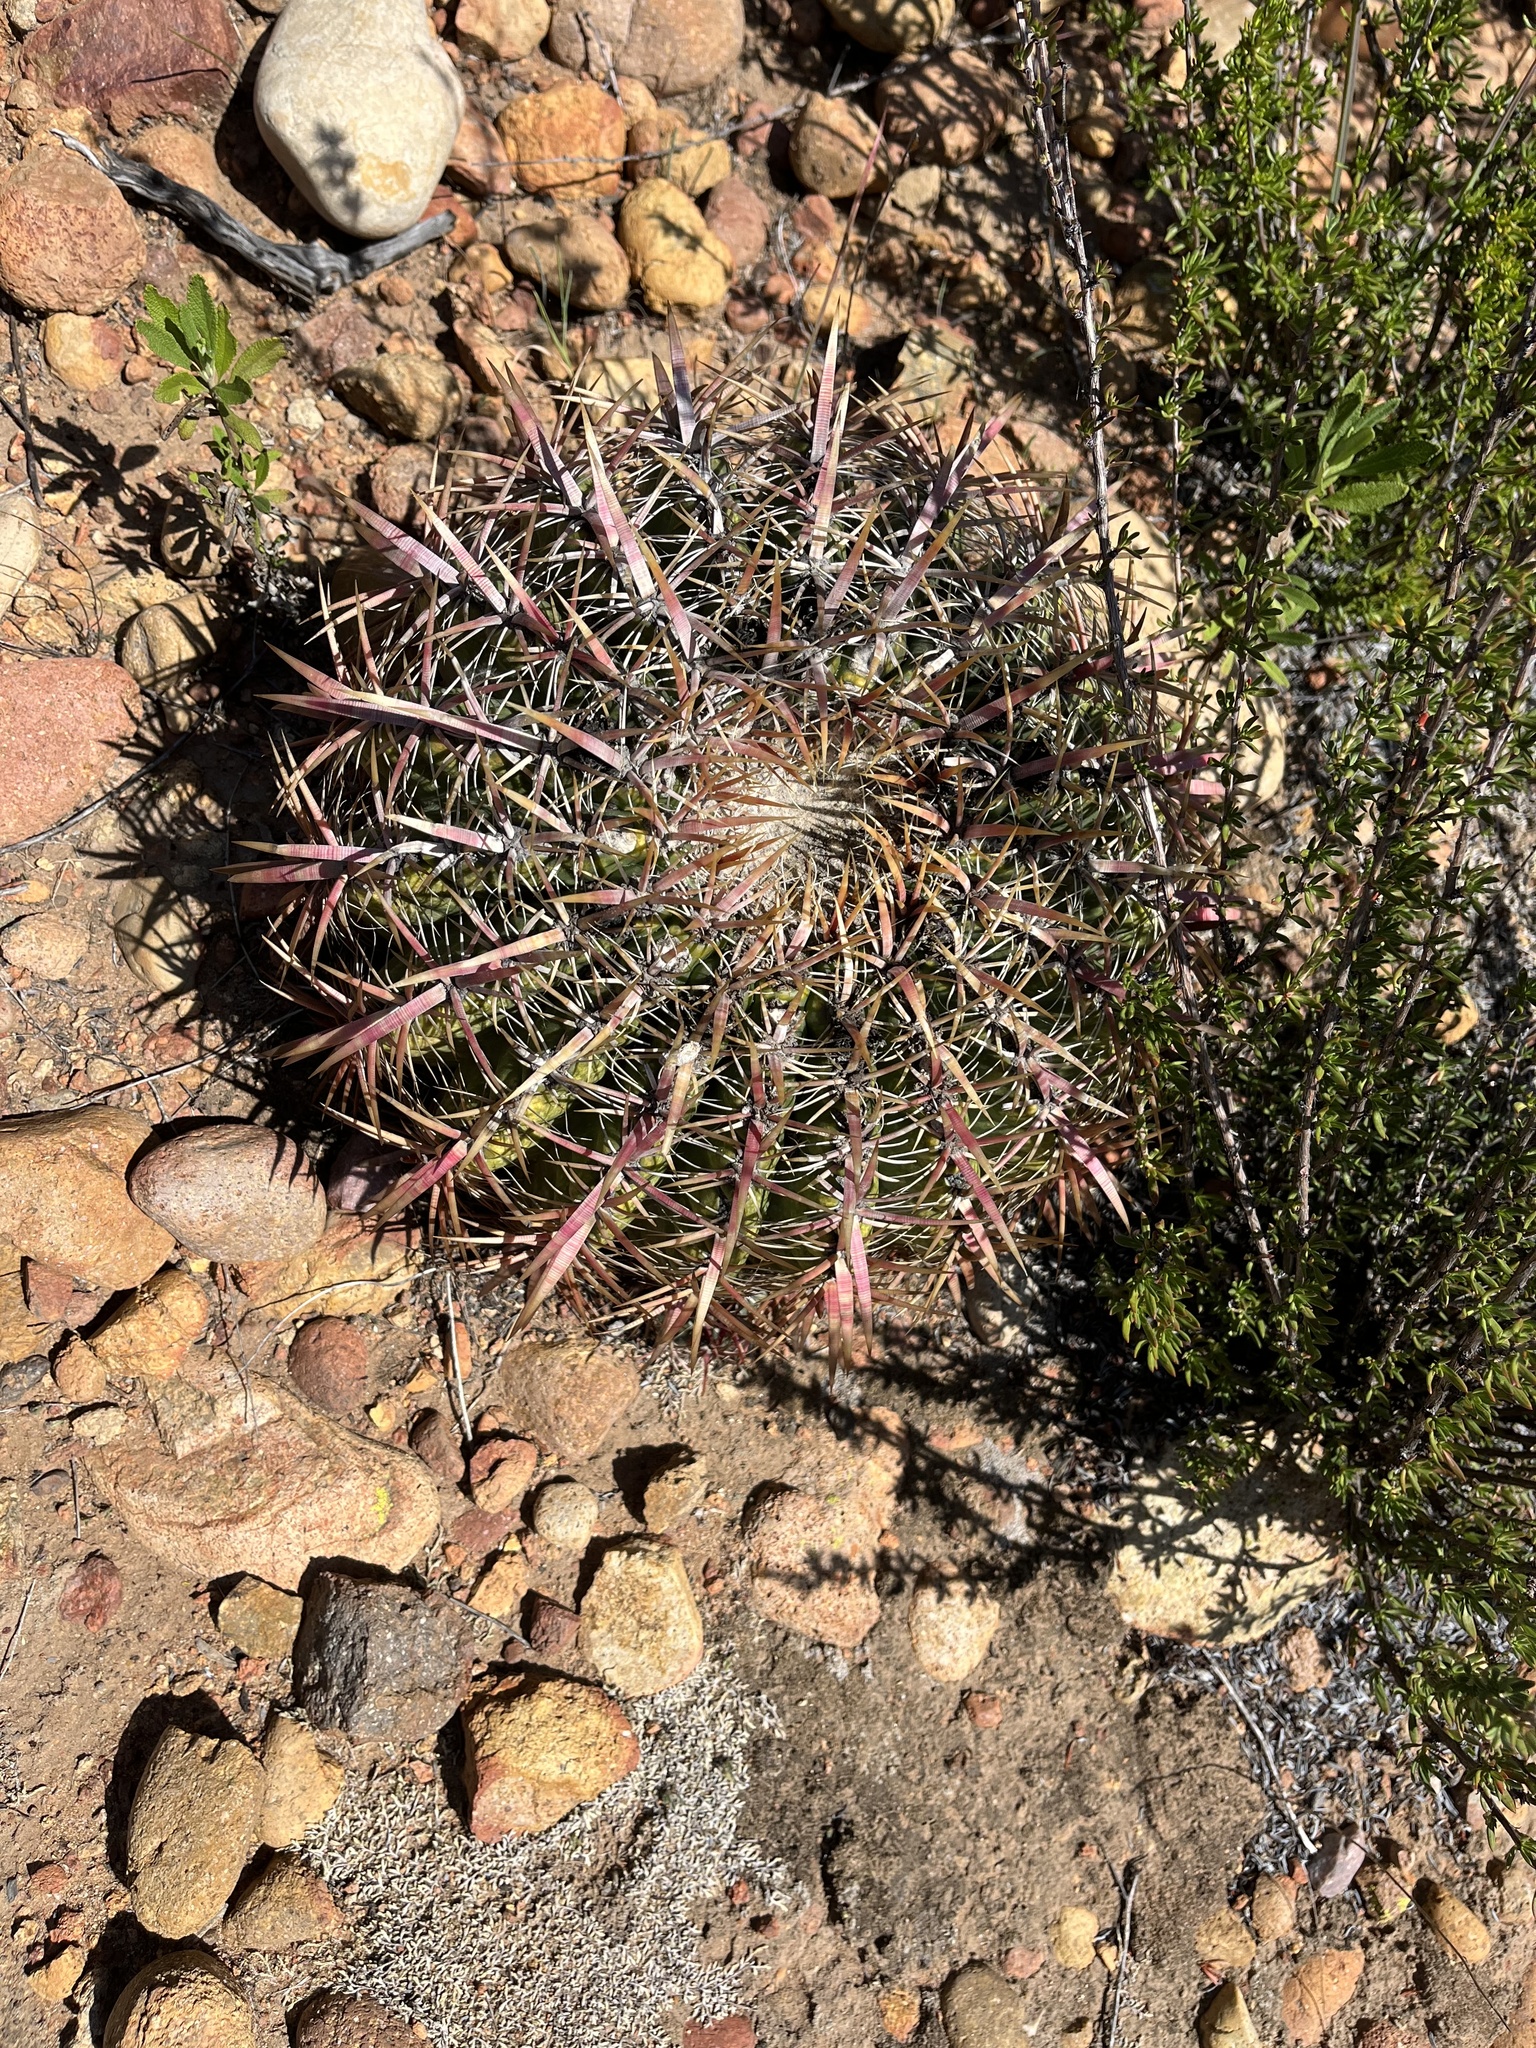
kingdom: Plantae
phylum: Tracheophyta
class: Magnoliopsida
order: Caryophyllales
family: Cactaceae
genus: Ferocactus
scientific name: Ferocactus viridescens
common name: San diego barrel cactus
